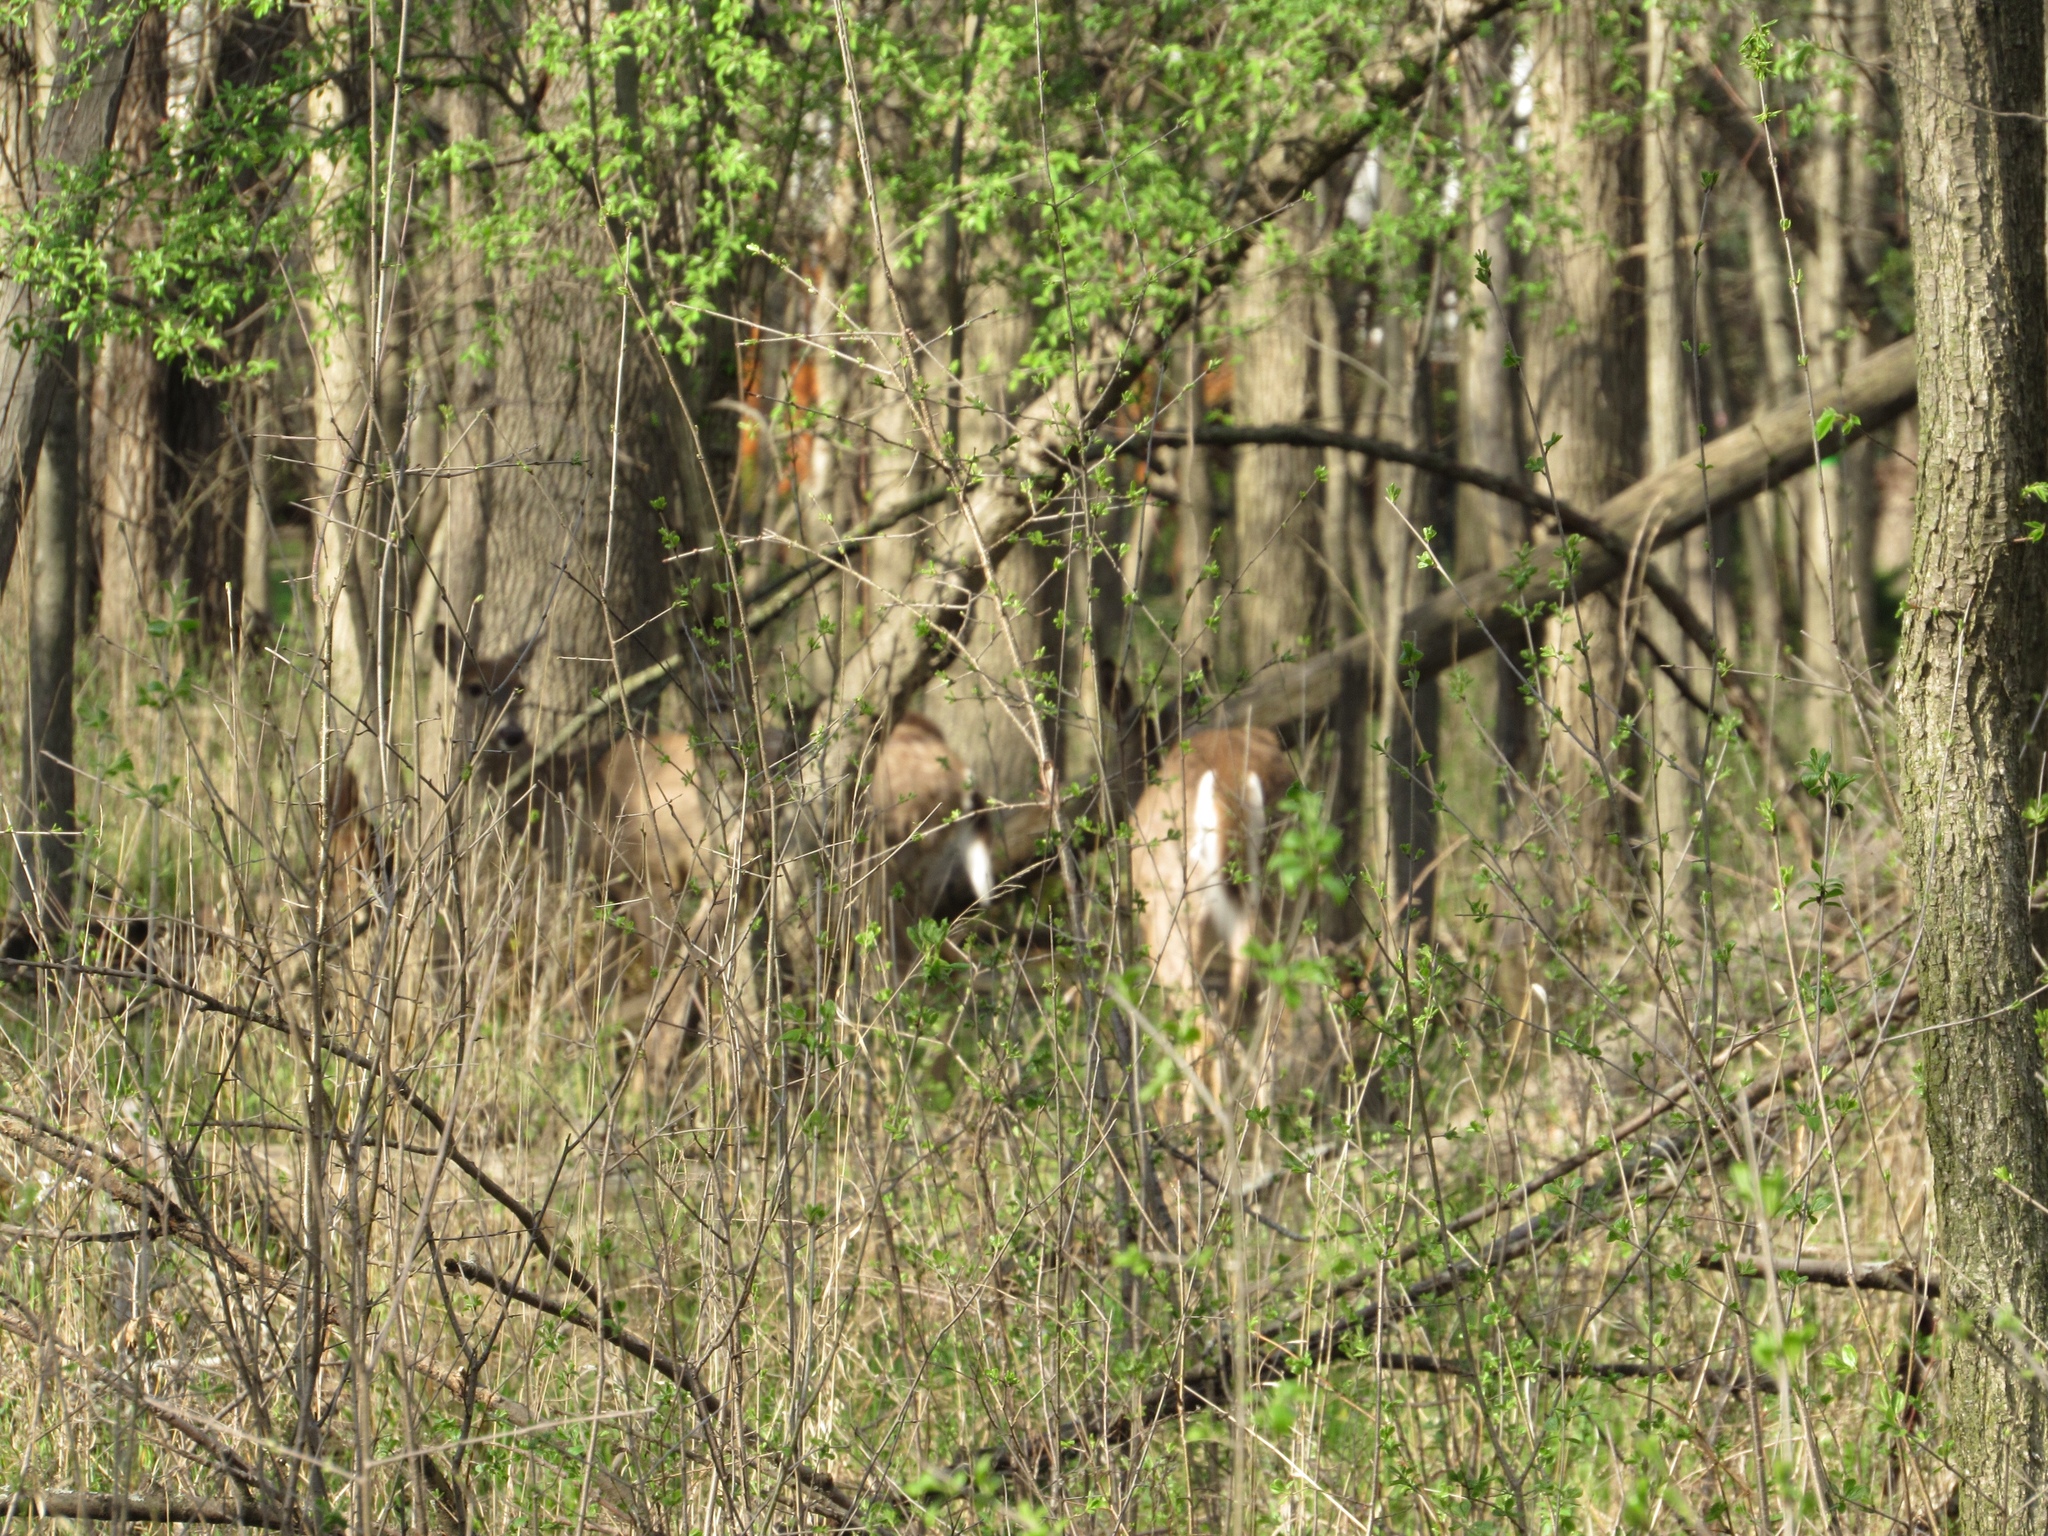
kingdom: Animalia
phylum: Chordata
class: Mammalia
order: Artiodactyla
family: Cervidae
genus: Odocoileus
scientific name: Odocoileus virginianus
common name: White-tailed deer
